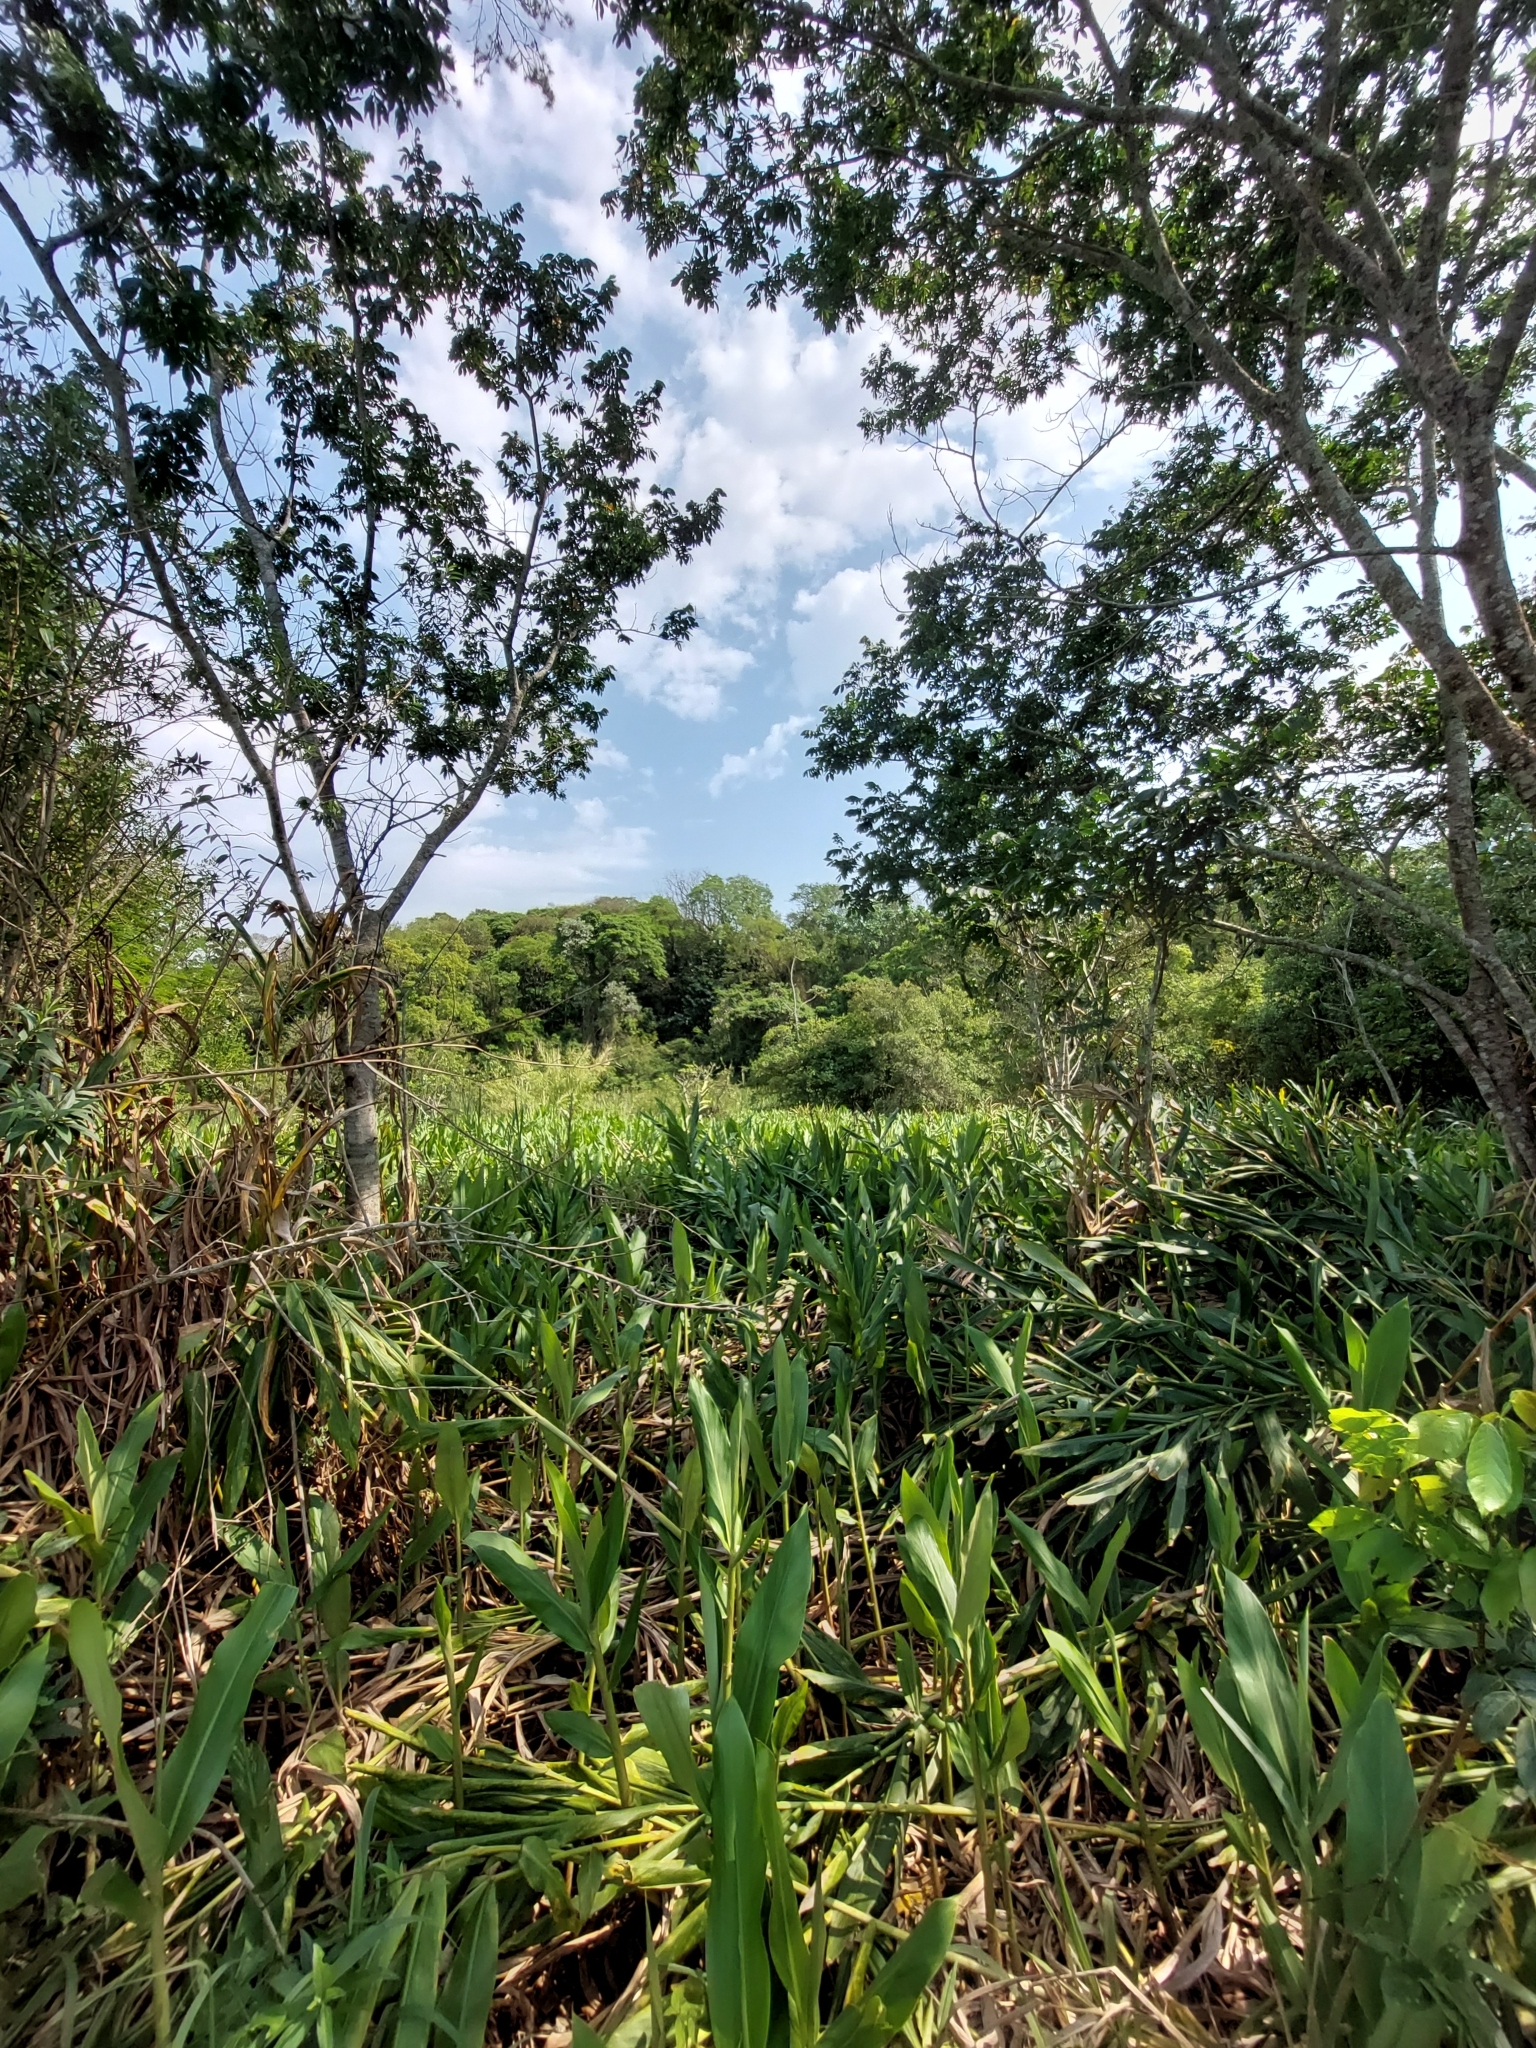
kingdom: Plantae
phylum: Tracheophyta
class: Liliopsida
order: Zingiberales
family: Zingiberaceae
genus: Hedychium
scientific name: Hedychium coronarium
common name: White garland-lily
